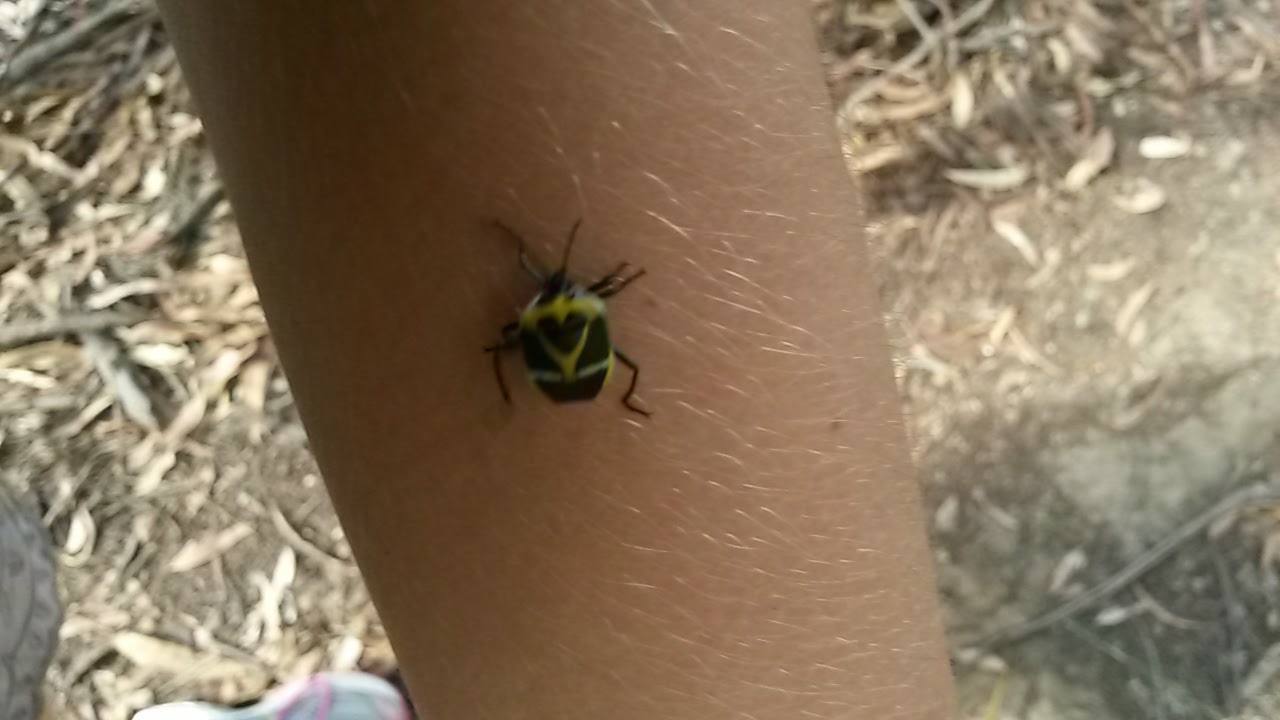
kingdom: Animalia
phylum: Arthropoda
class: Insecta
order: Hemiptera
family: Pentatomidae
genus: Commius
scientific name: Commius
